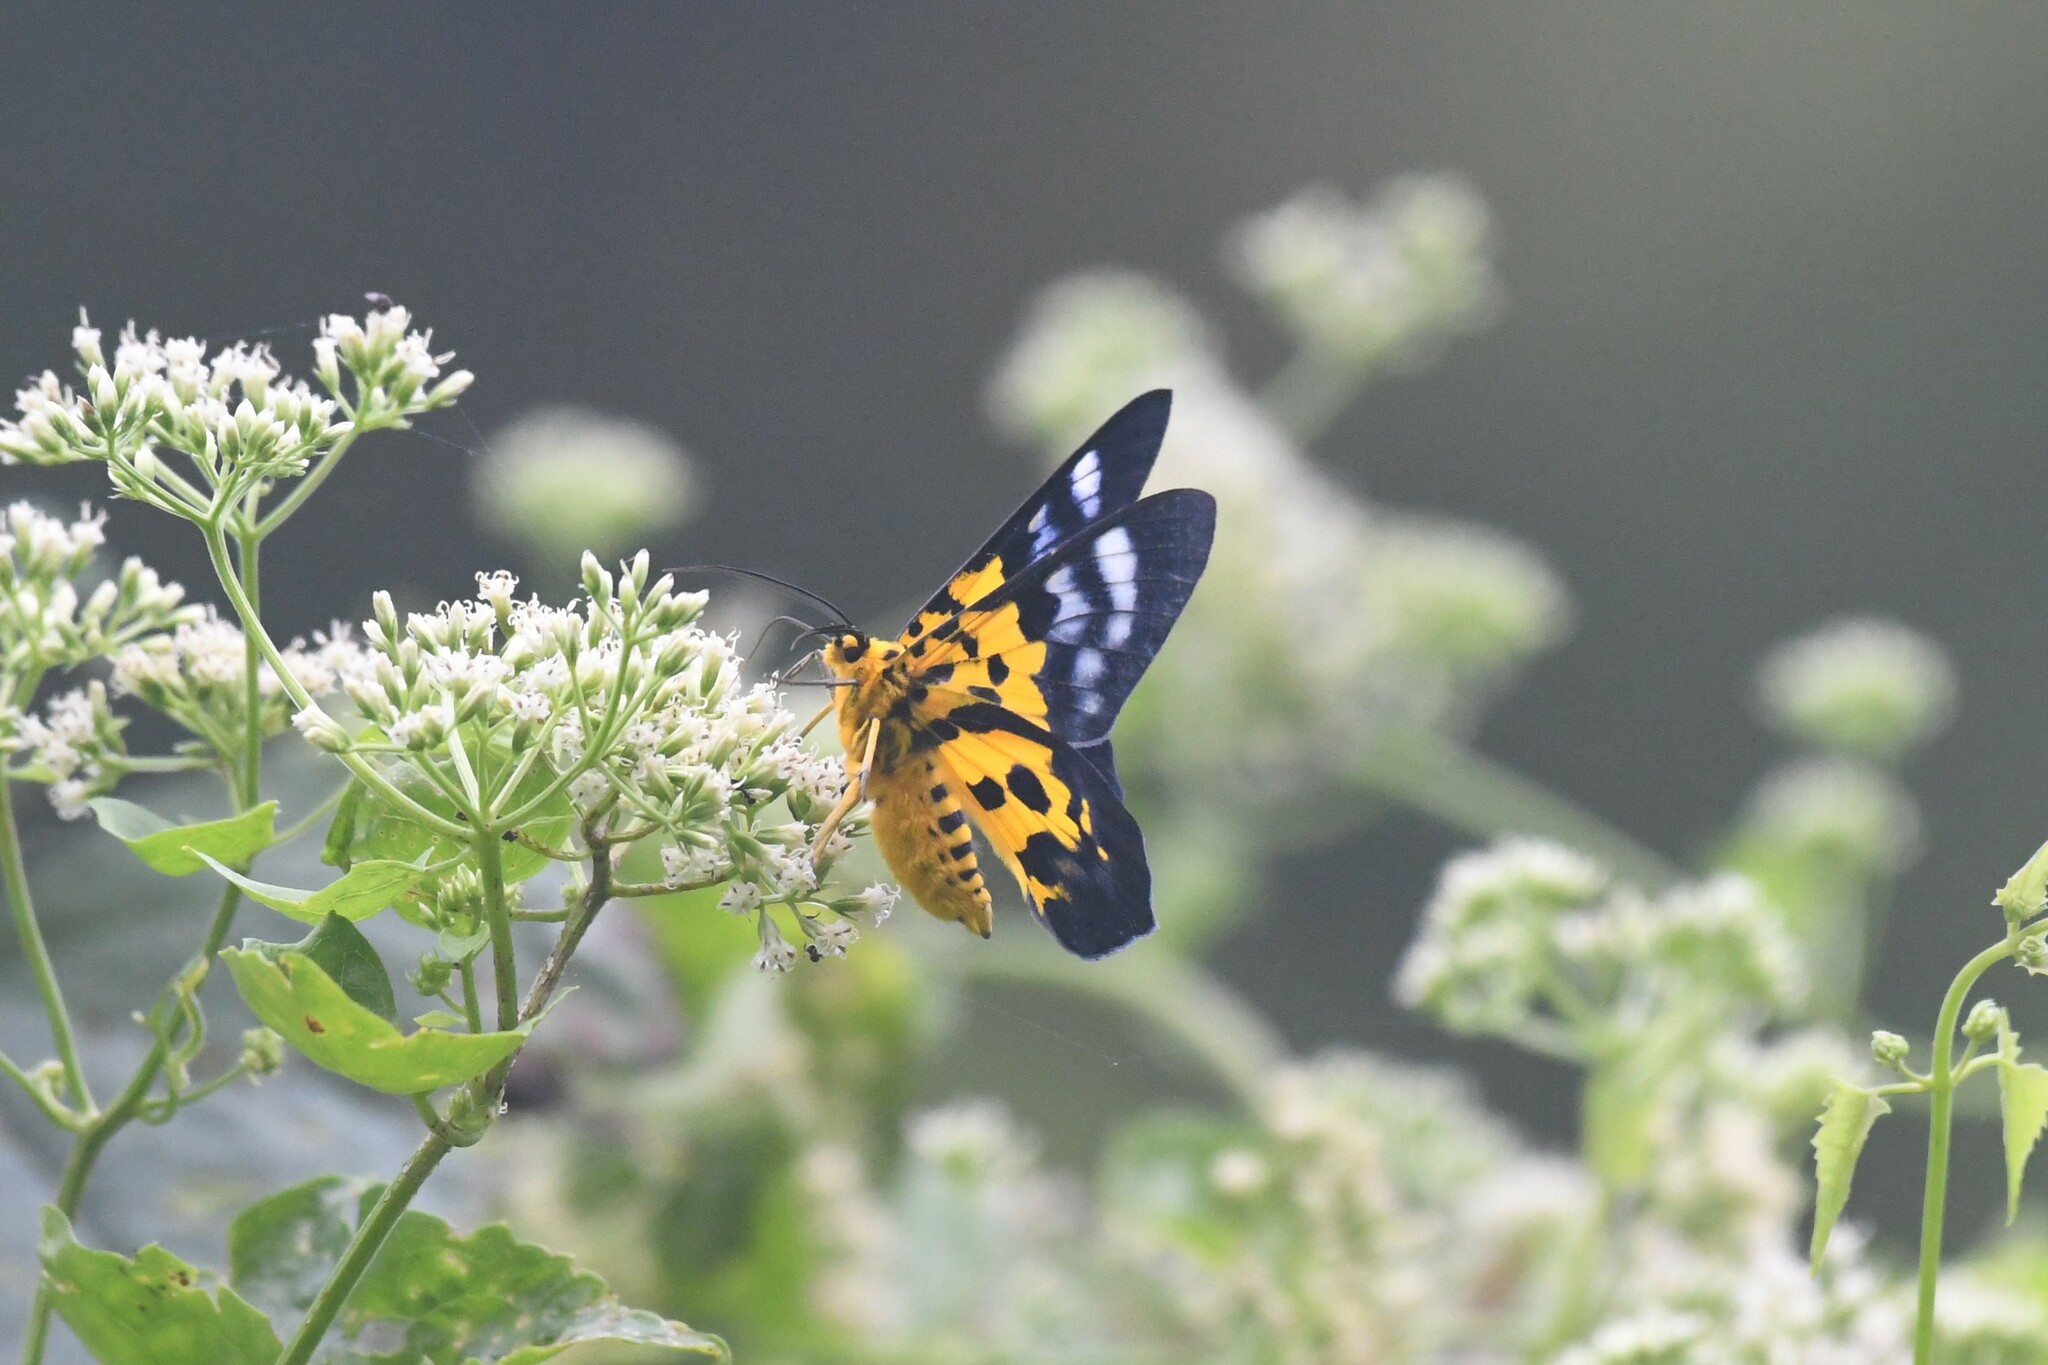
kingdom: Animalia
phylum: Arthropoda
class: Insecta
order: Lepidoptera
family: Geometridae
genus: Dysphania
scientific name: Dysphania militaris
